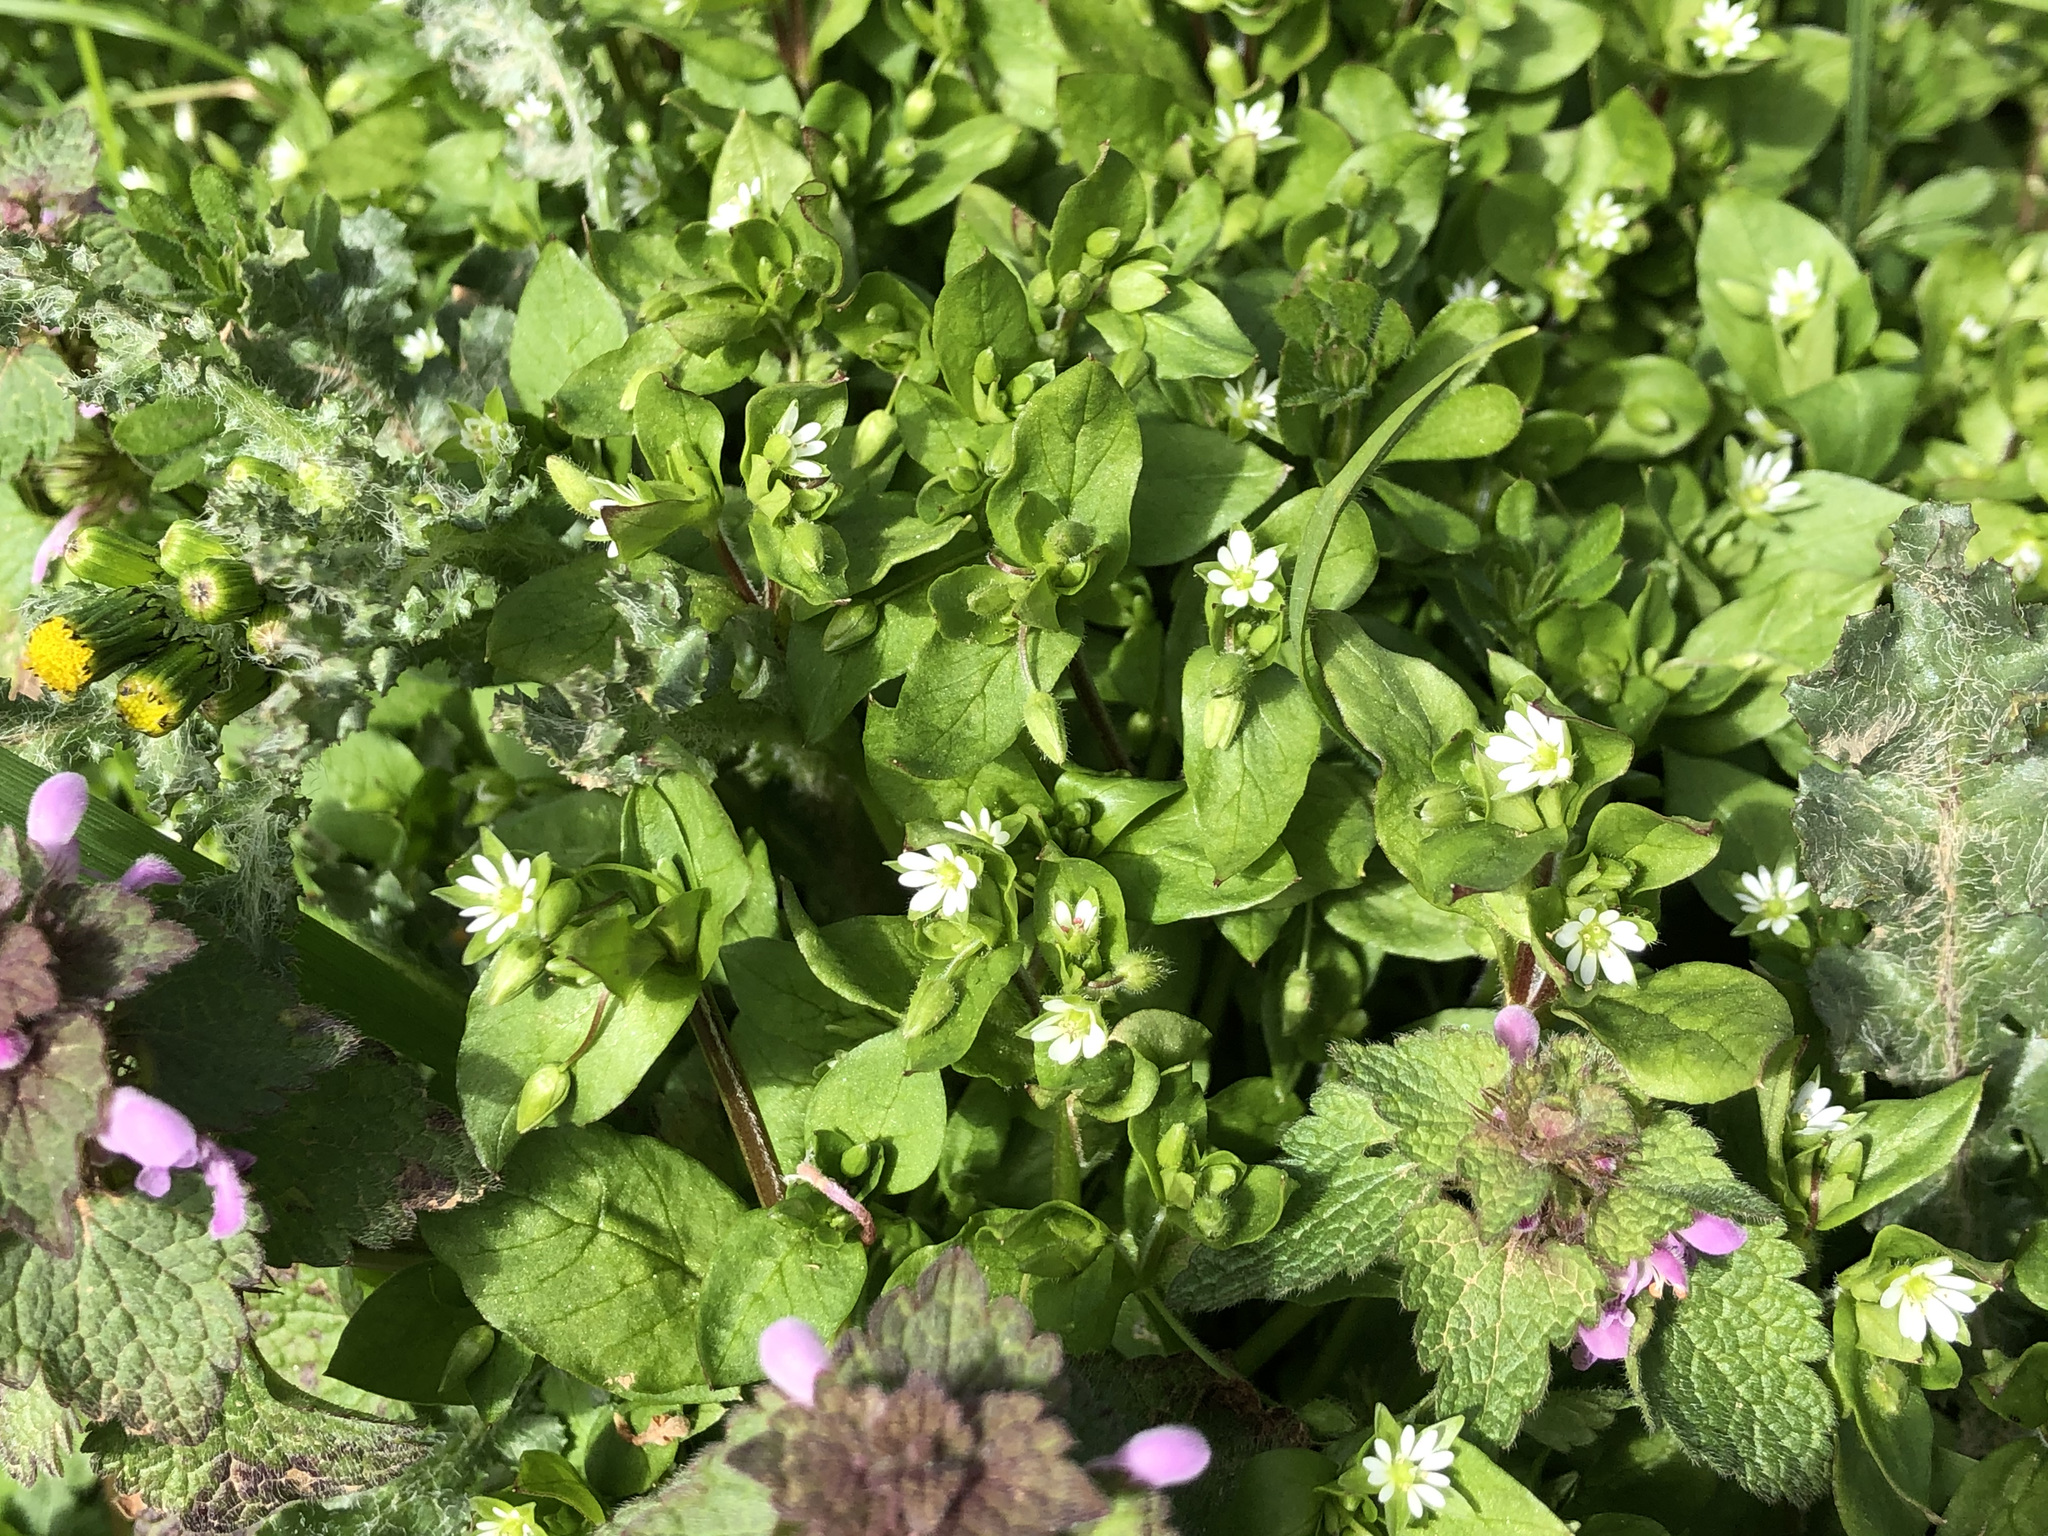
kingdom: Plantae
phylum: Tracheophyta
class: Magnoliopsida
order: Caryophyllales
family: Caryophyllaceae
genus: Stellaria
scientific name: Stellaria media
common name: Common chickweed
